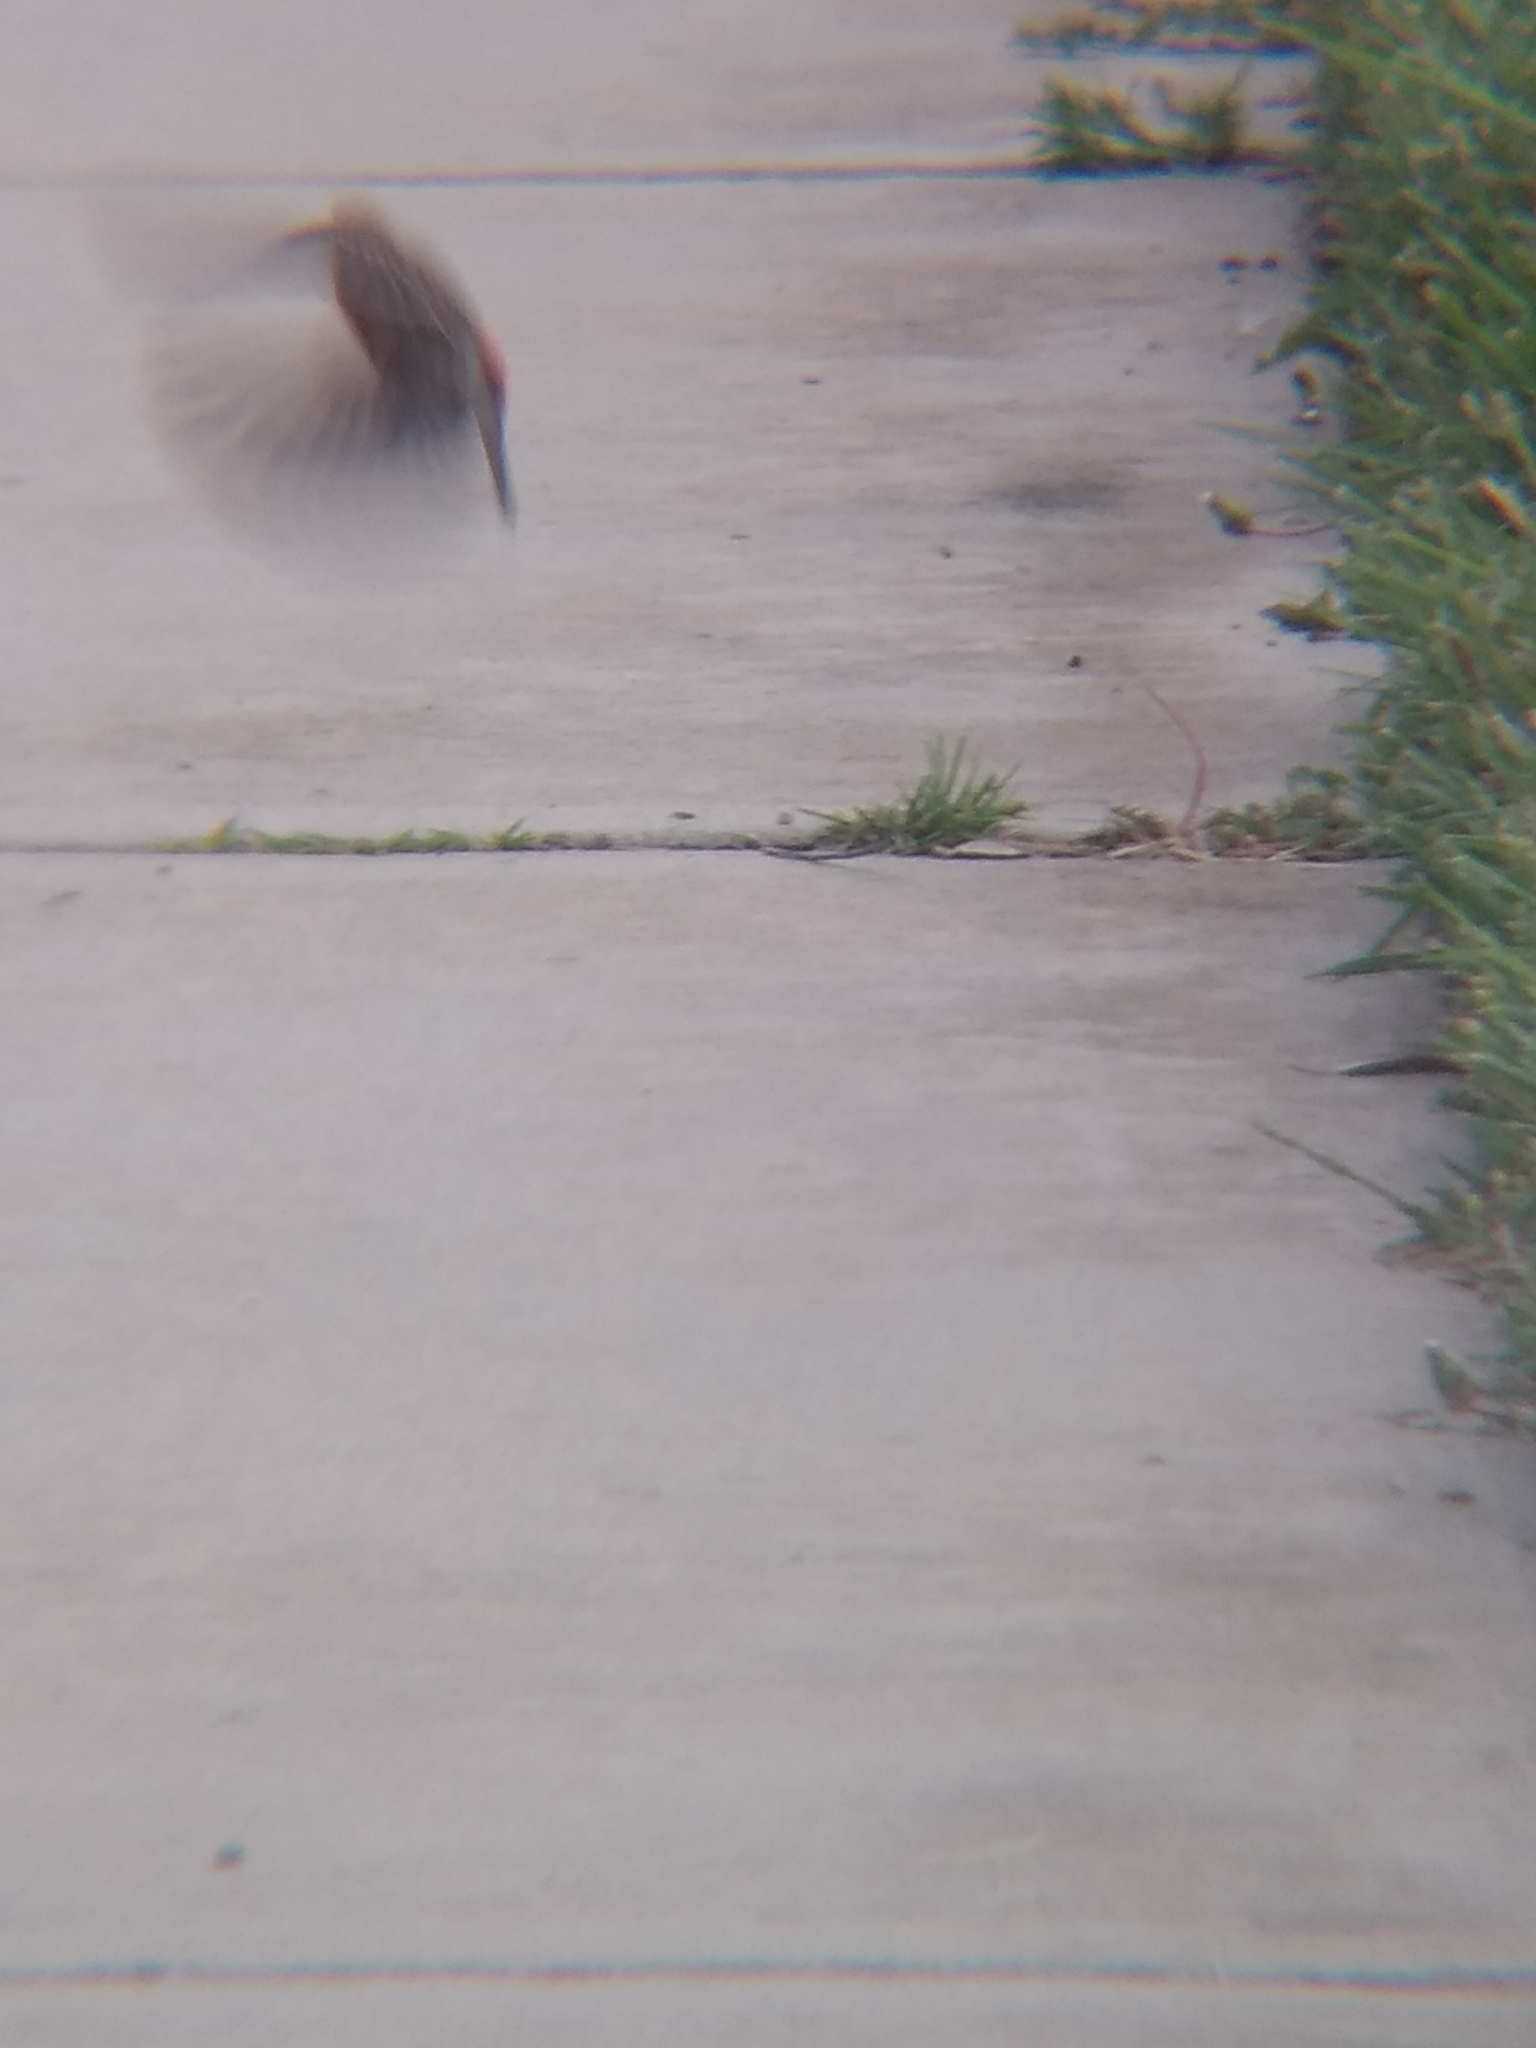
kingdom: Animalia
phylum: Chordata
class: Aves
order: Passeriformes
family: Fringillidae
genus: Haemorhous
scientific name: Haemorhous mexicanus
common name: House finch
